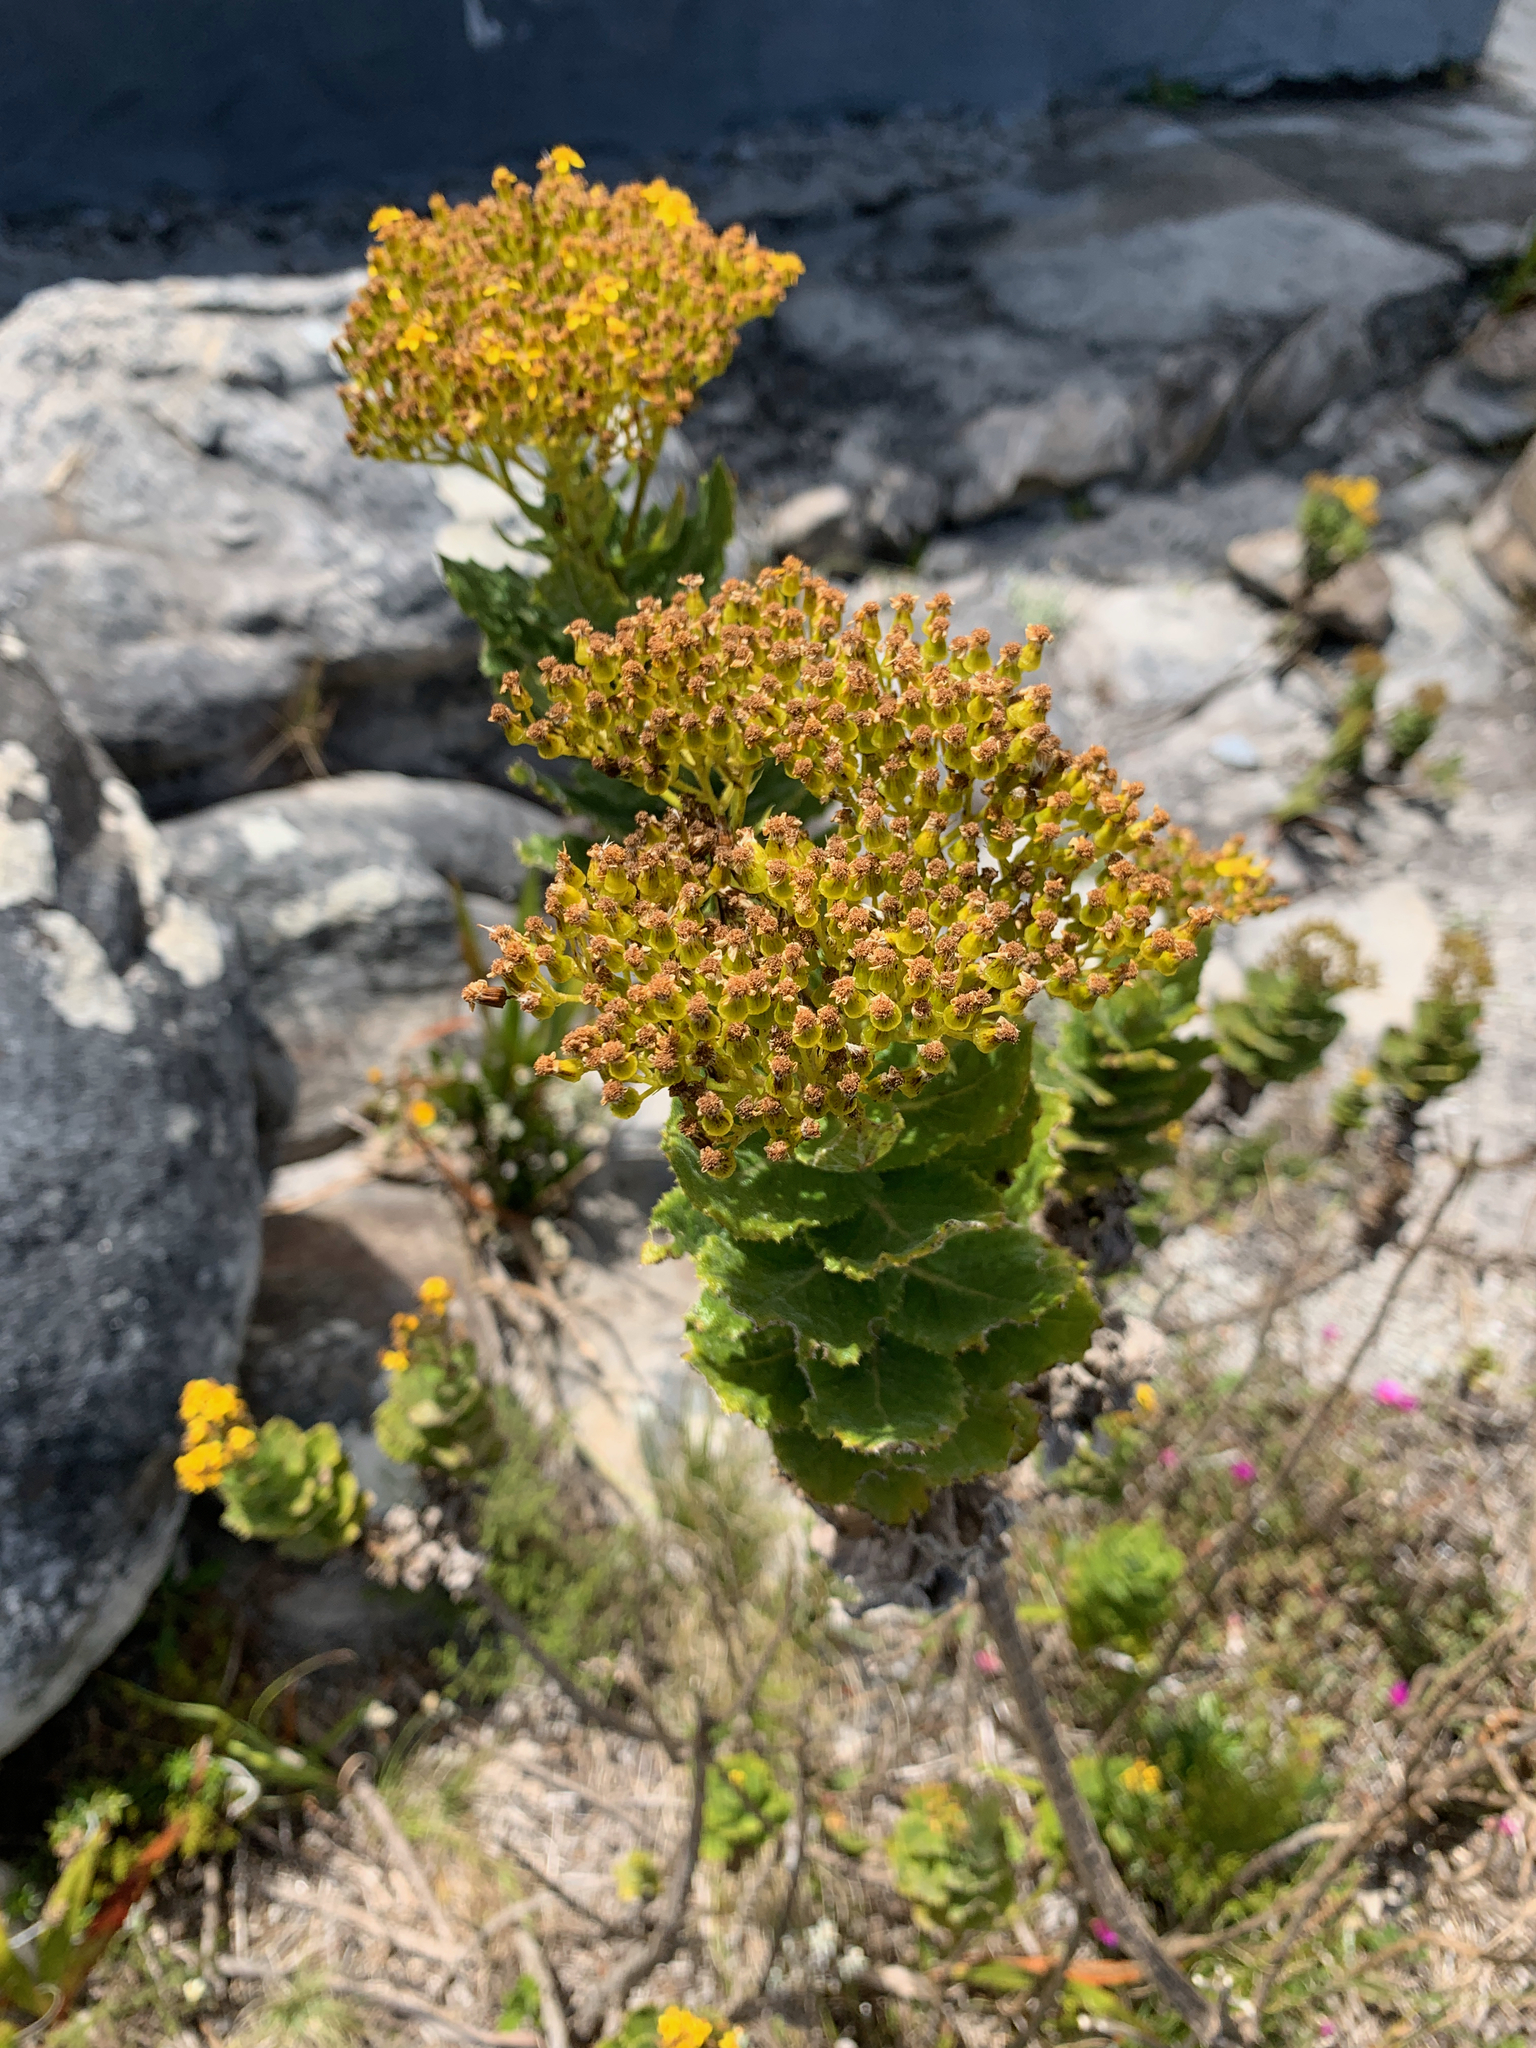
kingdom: Plantae
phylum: Tracheophyta
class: Magnoliopsida
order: Asterales
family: Asteraceae
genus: Senecio
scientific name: Senecio rigidus
